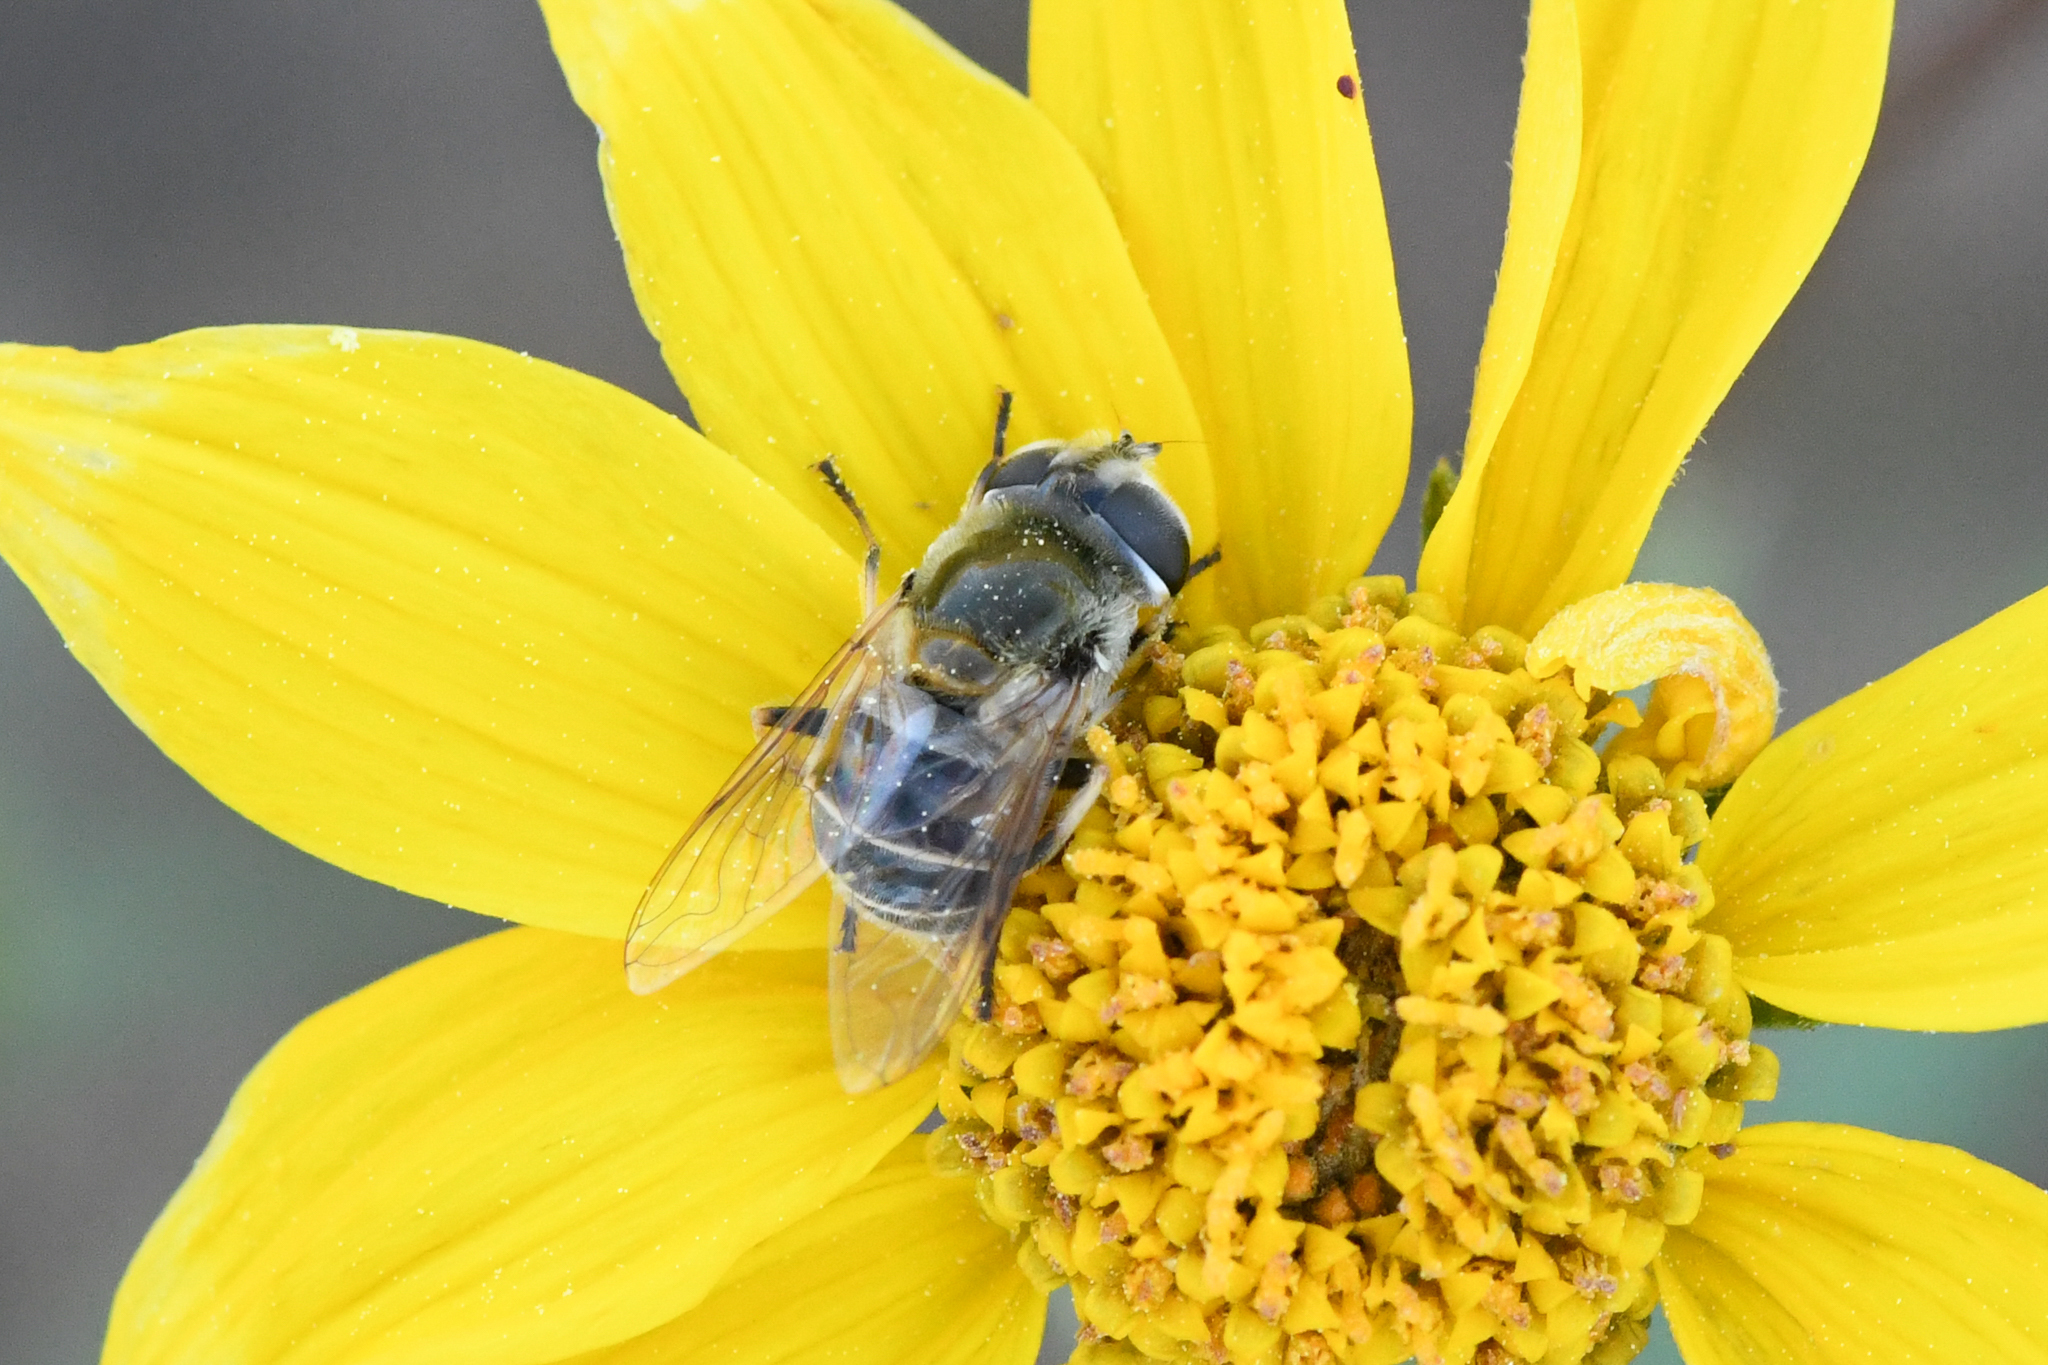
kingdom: Animalia
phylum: Arthropoda
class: Insecta
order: Diptera
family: Syrphidae
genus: Eristalis
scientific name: Eristalis stipator
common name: Yellow-shouldered drone fly
